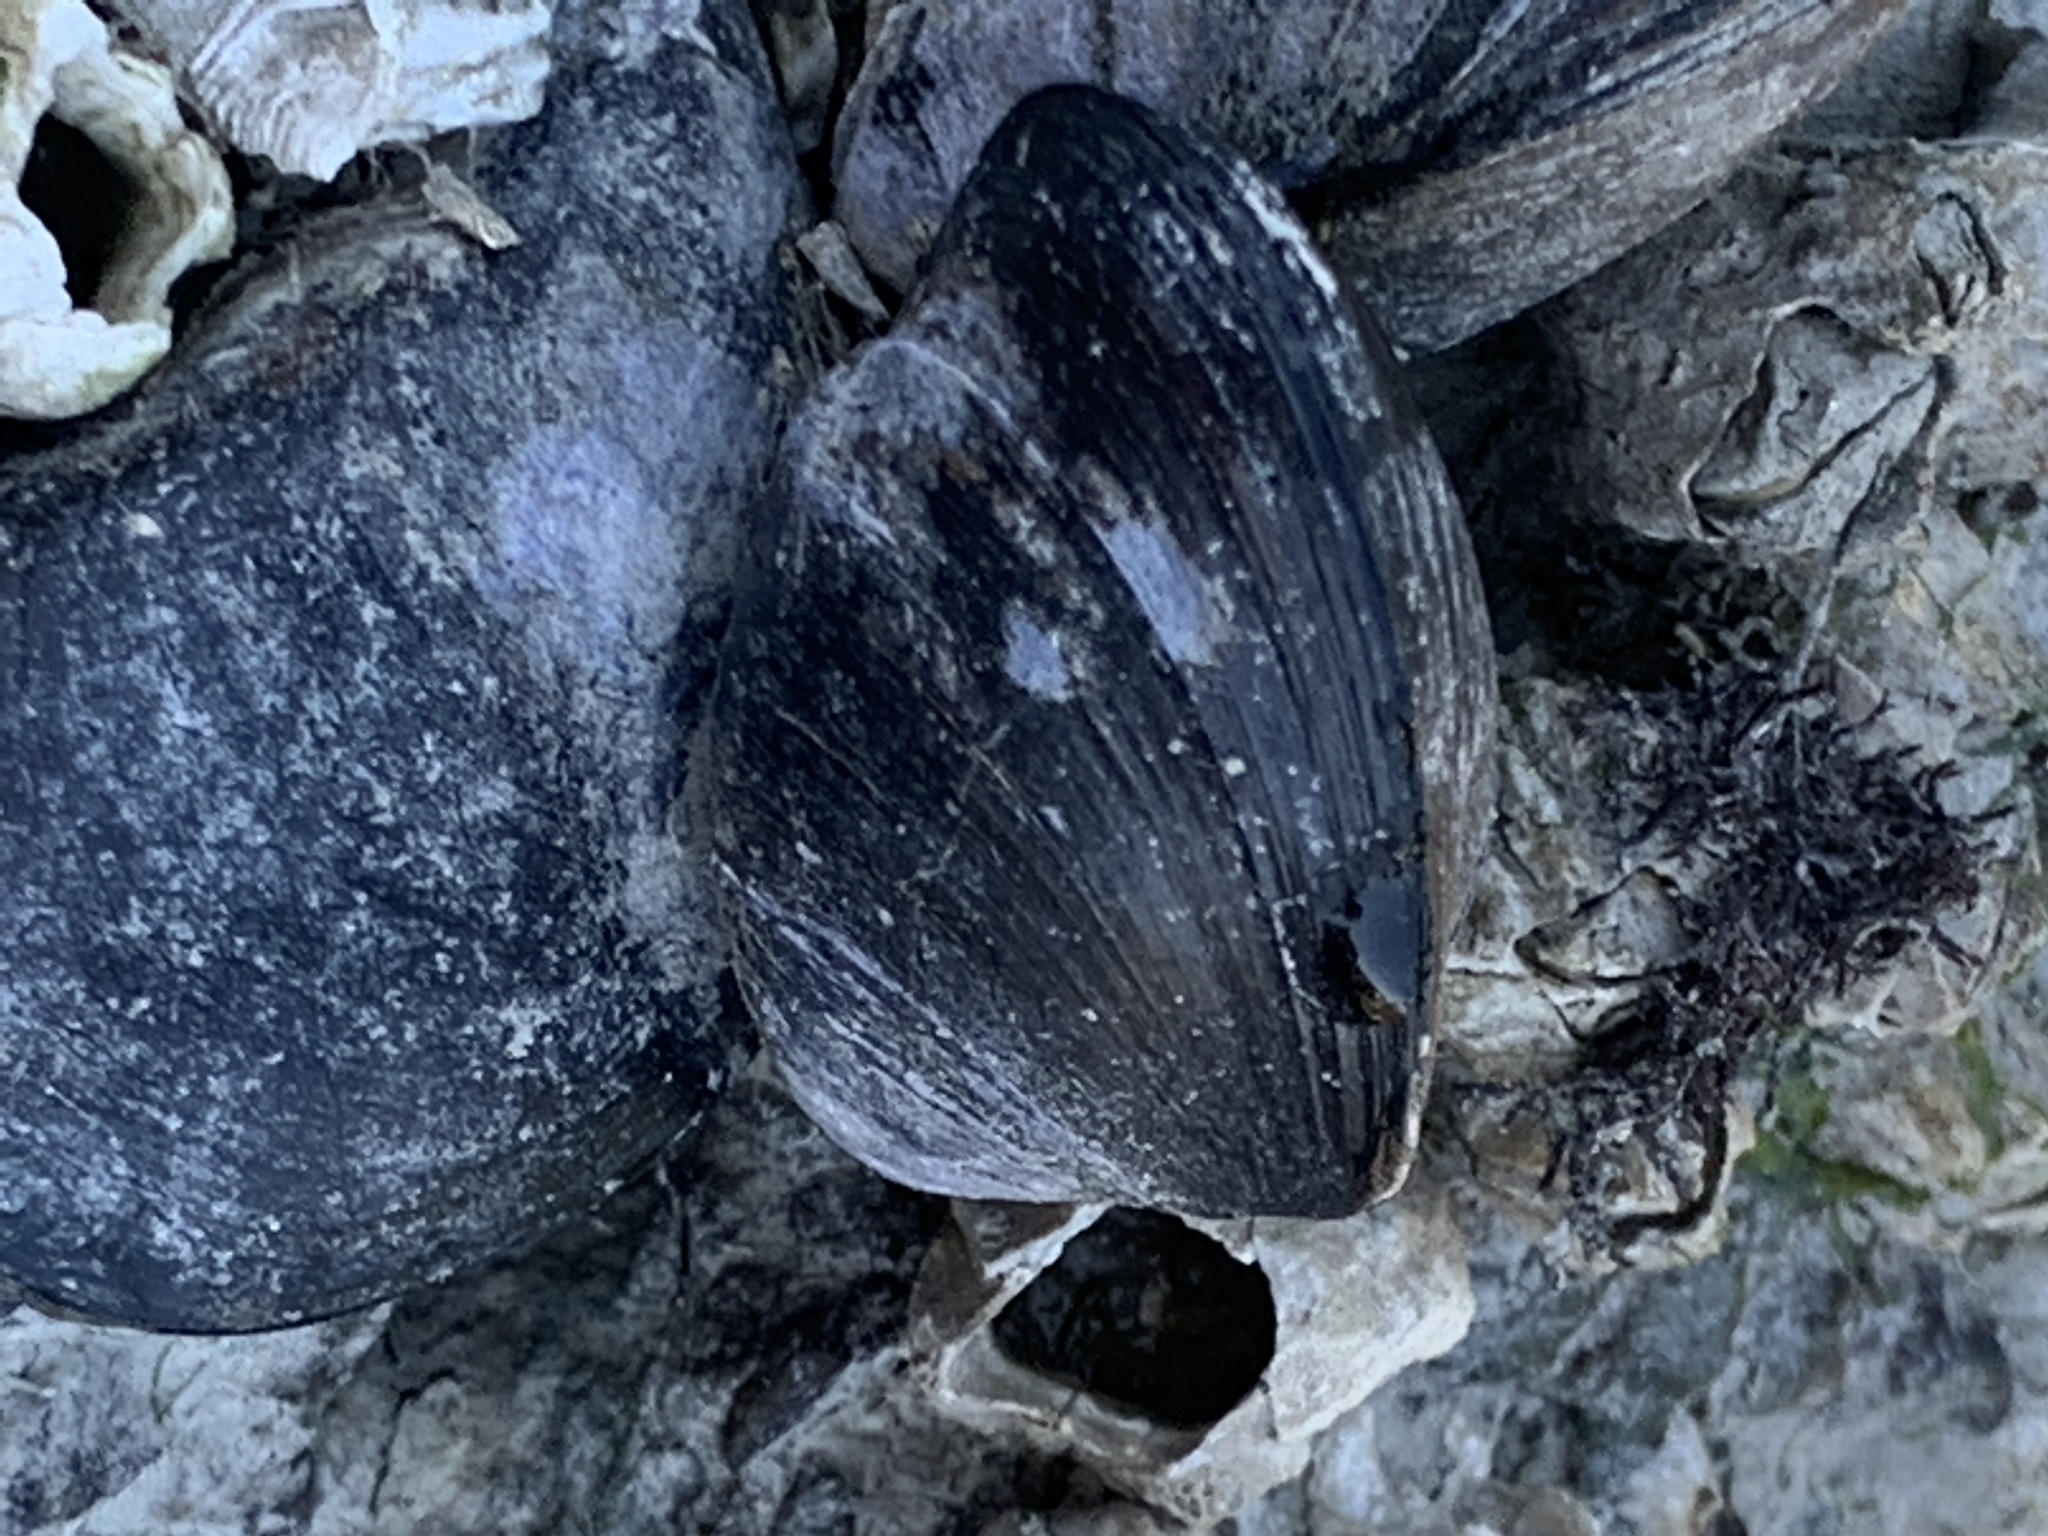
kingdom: Animalia
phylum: Mollusca
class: Bivalvia
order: Mytilida
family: Mytilidae
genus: Mytilus
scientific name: Mytilus
